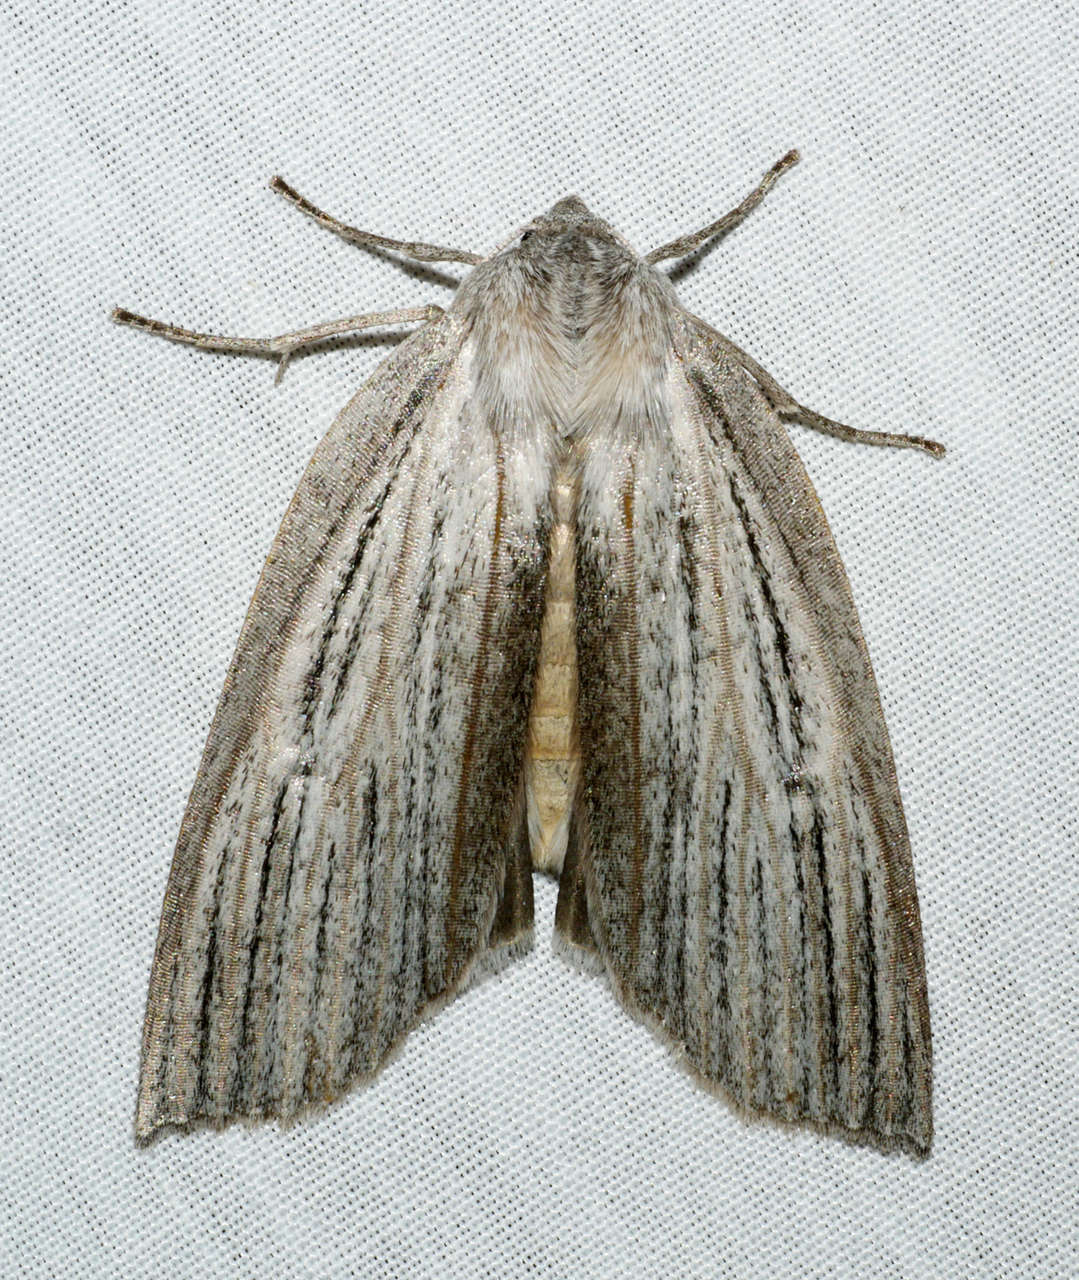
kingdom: Animalia
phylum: Arthropoda
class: Insecta
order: Lepidoptera
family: Geometridae
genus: Paralaea
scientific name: Paralaea polysticha
